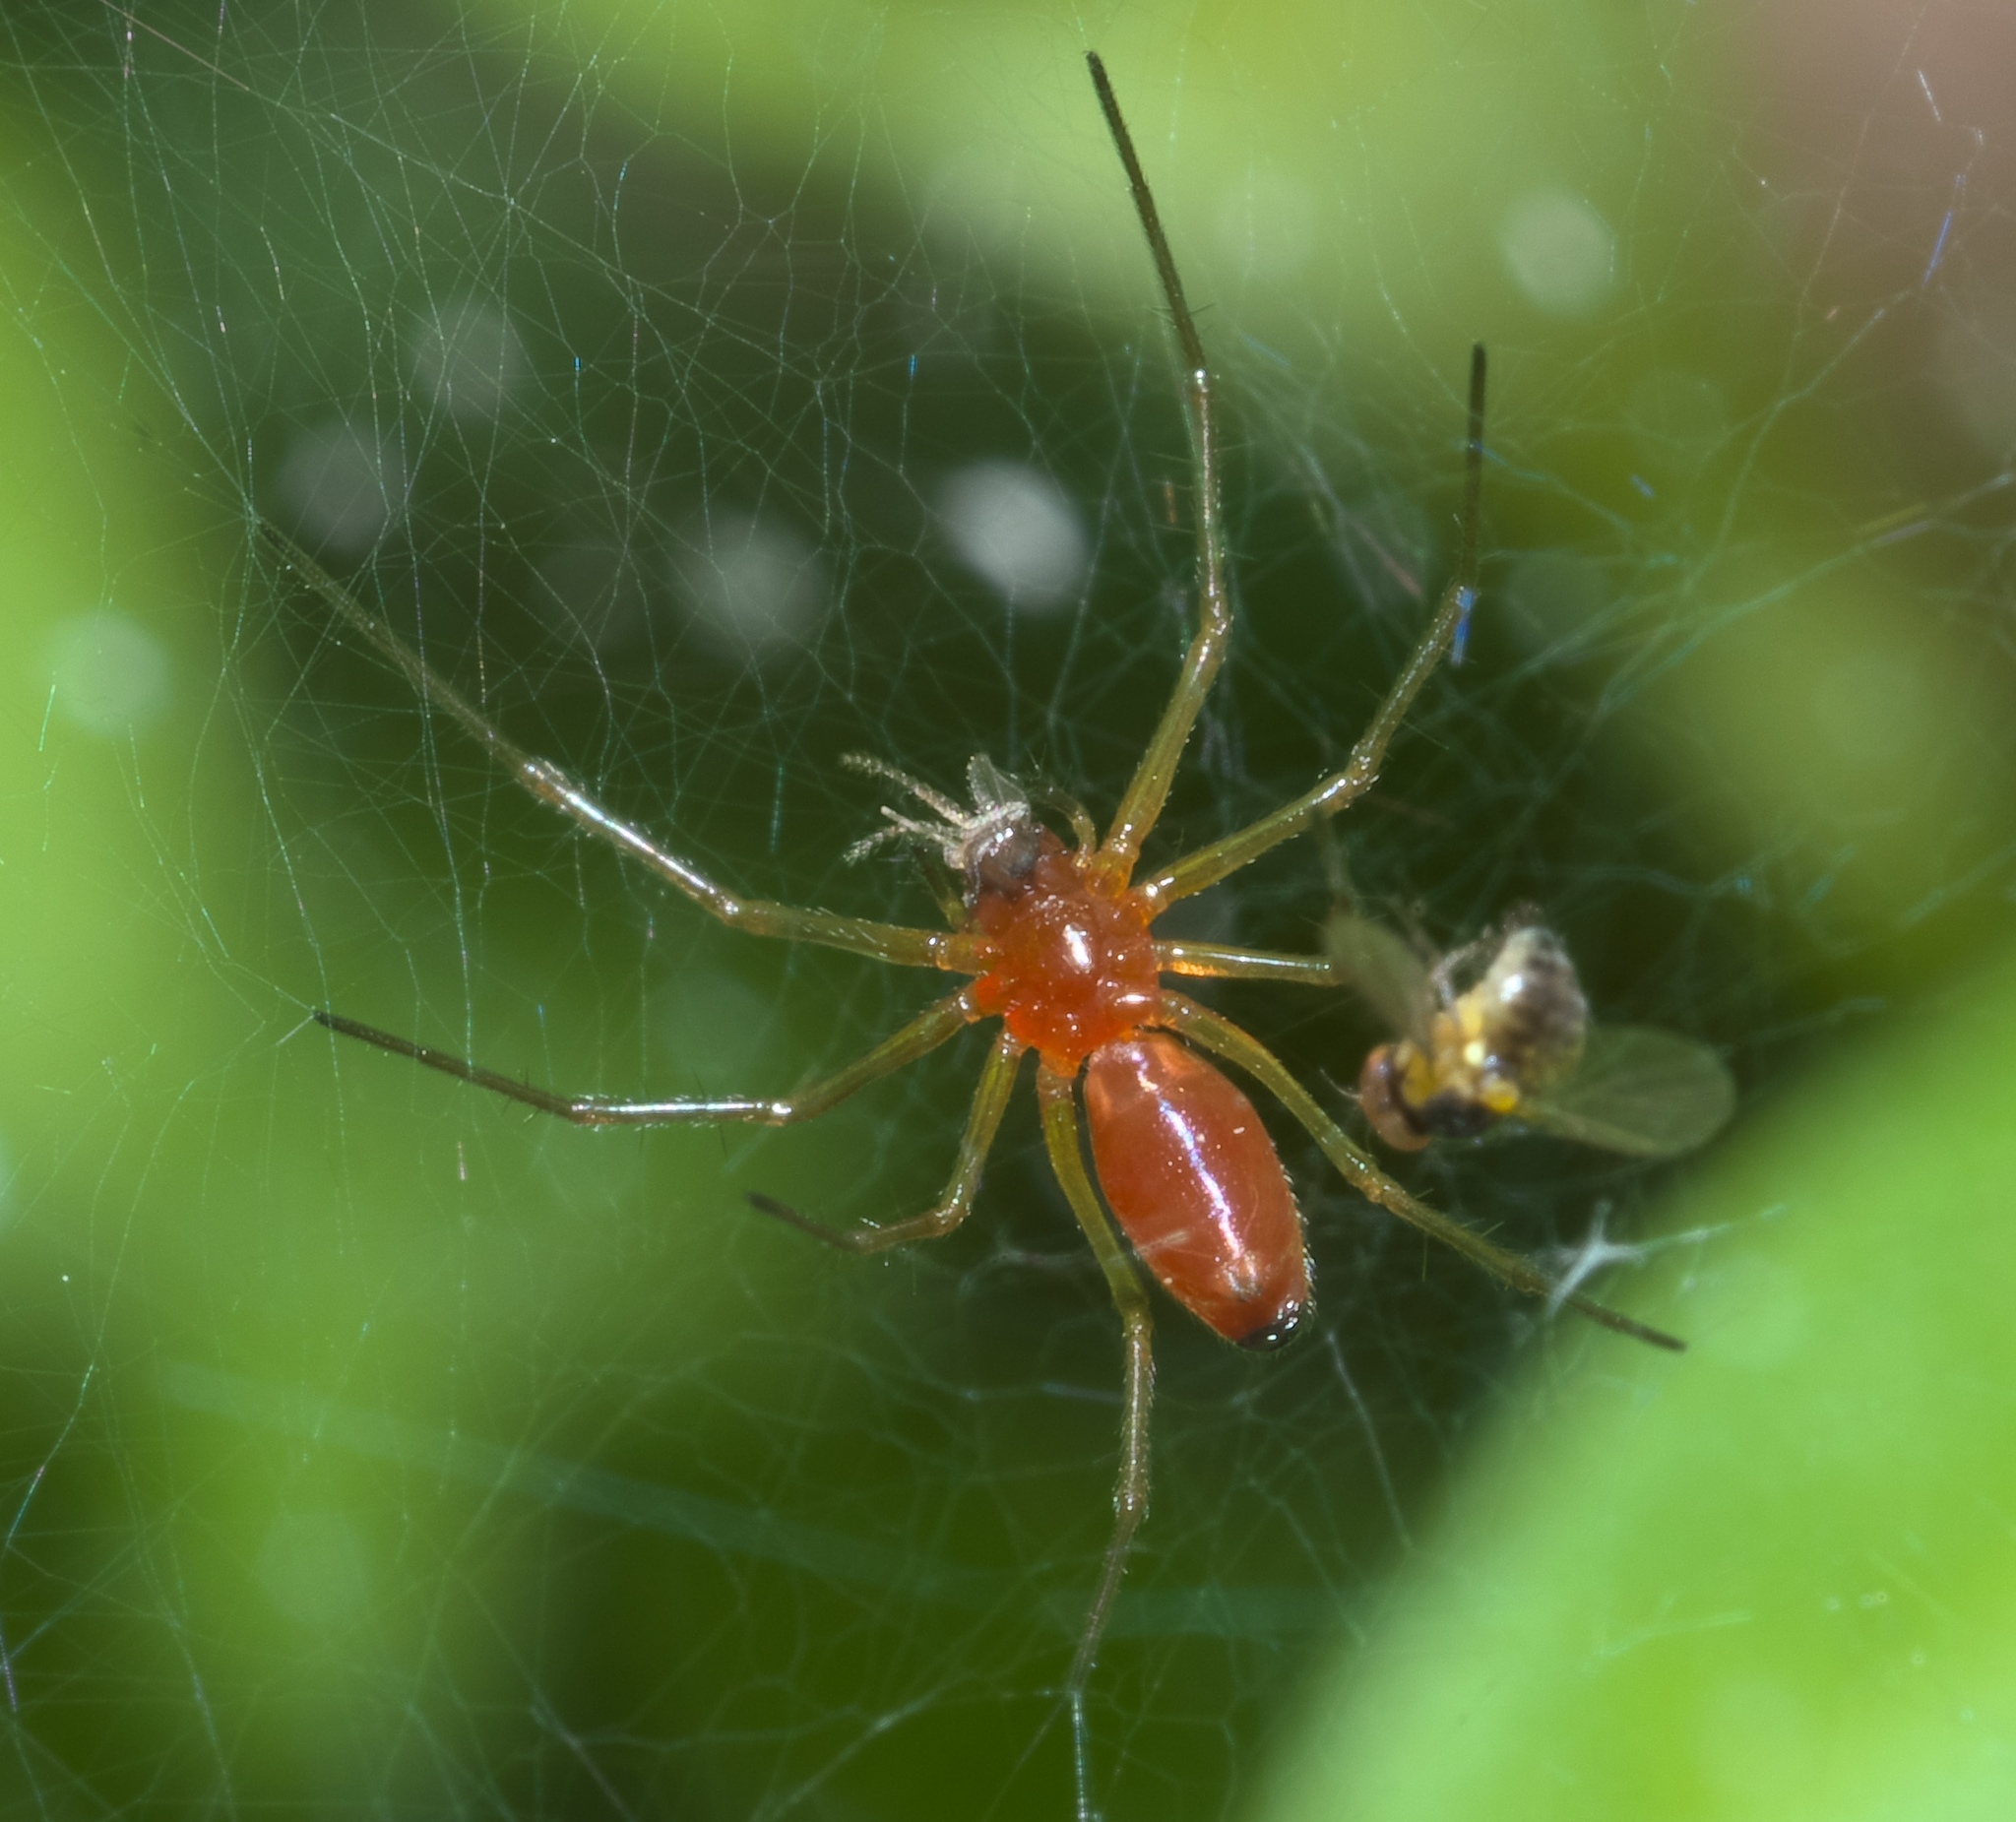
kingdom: Animalia
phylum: Arthropoda
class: Arachnida
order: Araneae
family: Linyphiidae
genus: Florinda
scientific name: Florinda coccinea
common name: Black-tailed red sheetweaver
